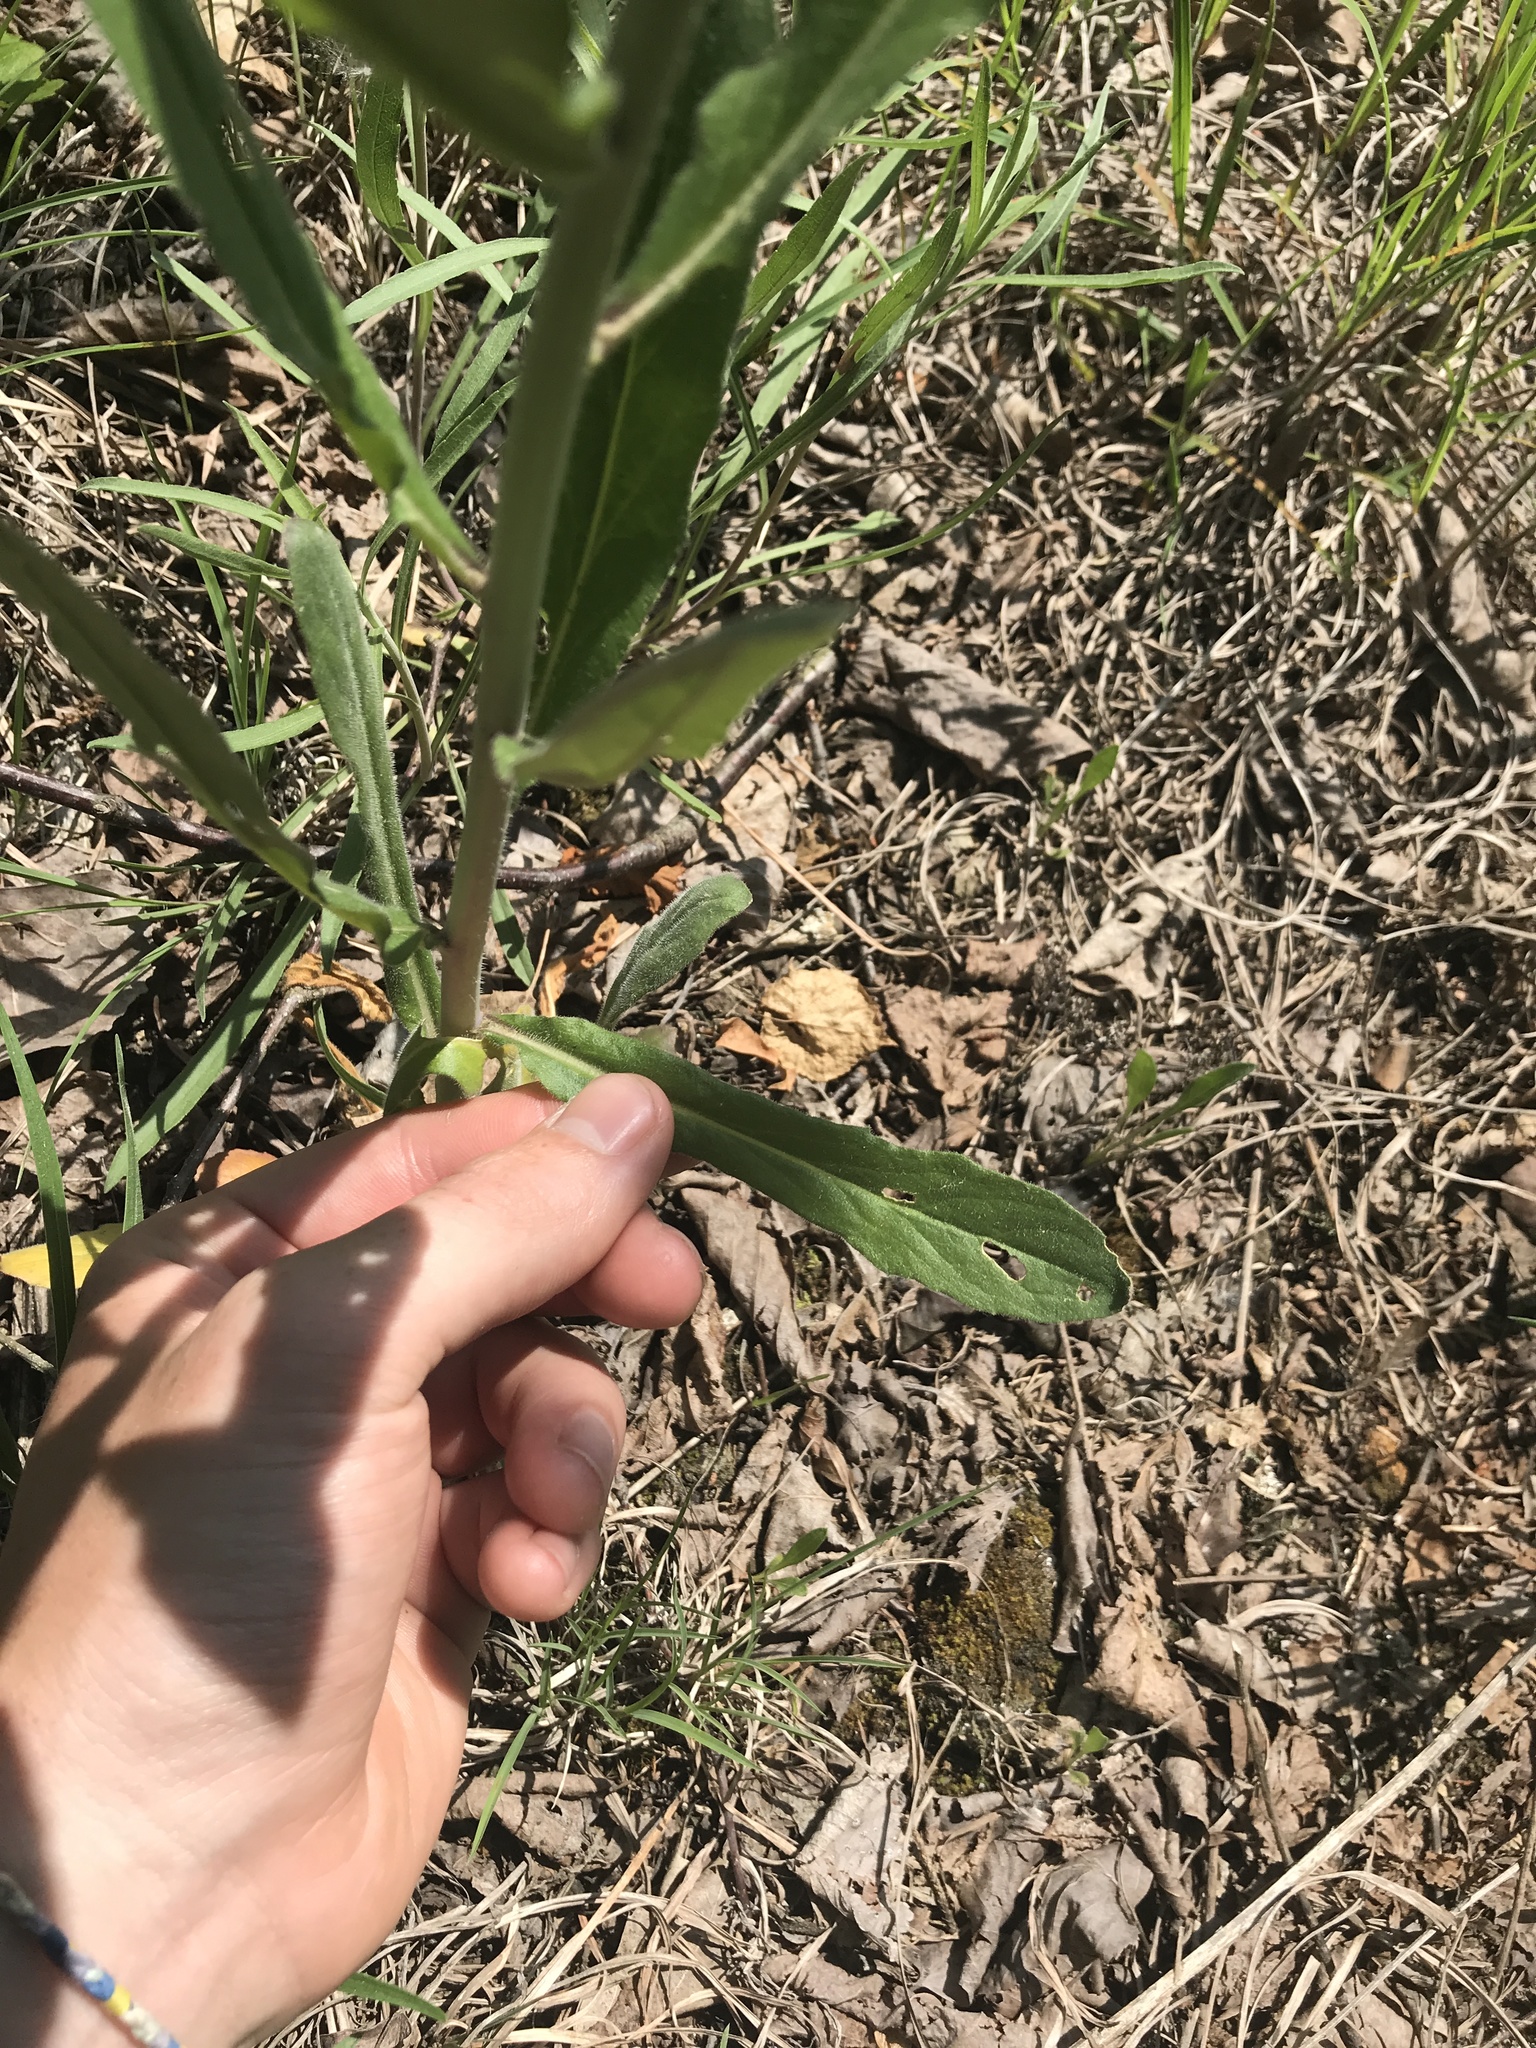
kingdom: Plantae
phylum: Tracheophyta
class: Magnoliopsida
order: Brassicales
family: Brassicaceae
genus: Borodinia
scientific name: Borodinia canadensis
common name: Sicklepod
